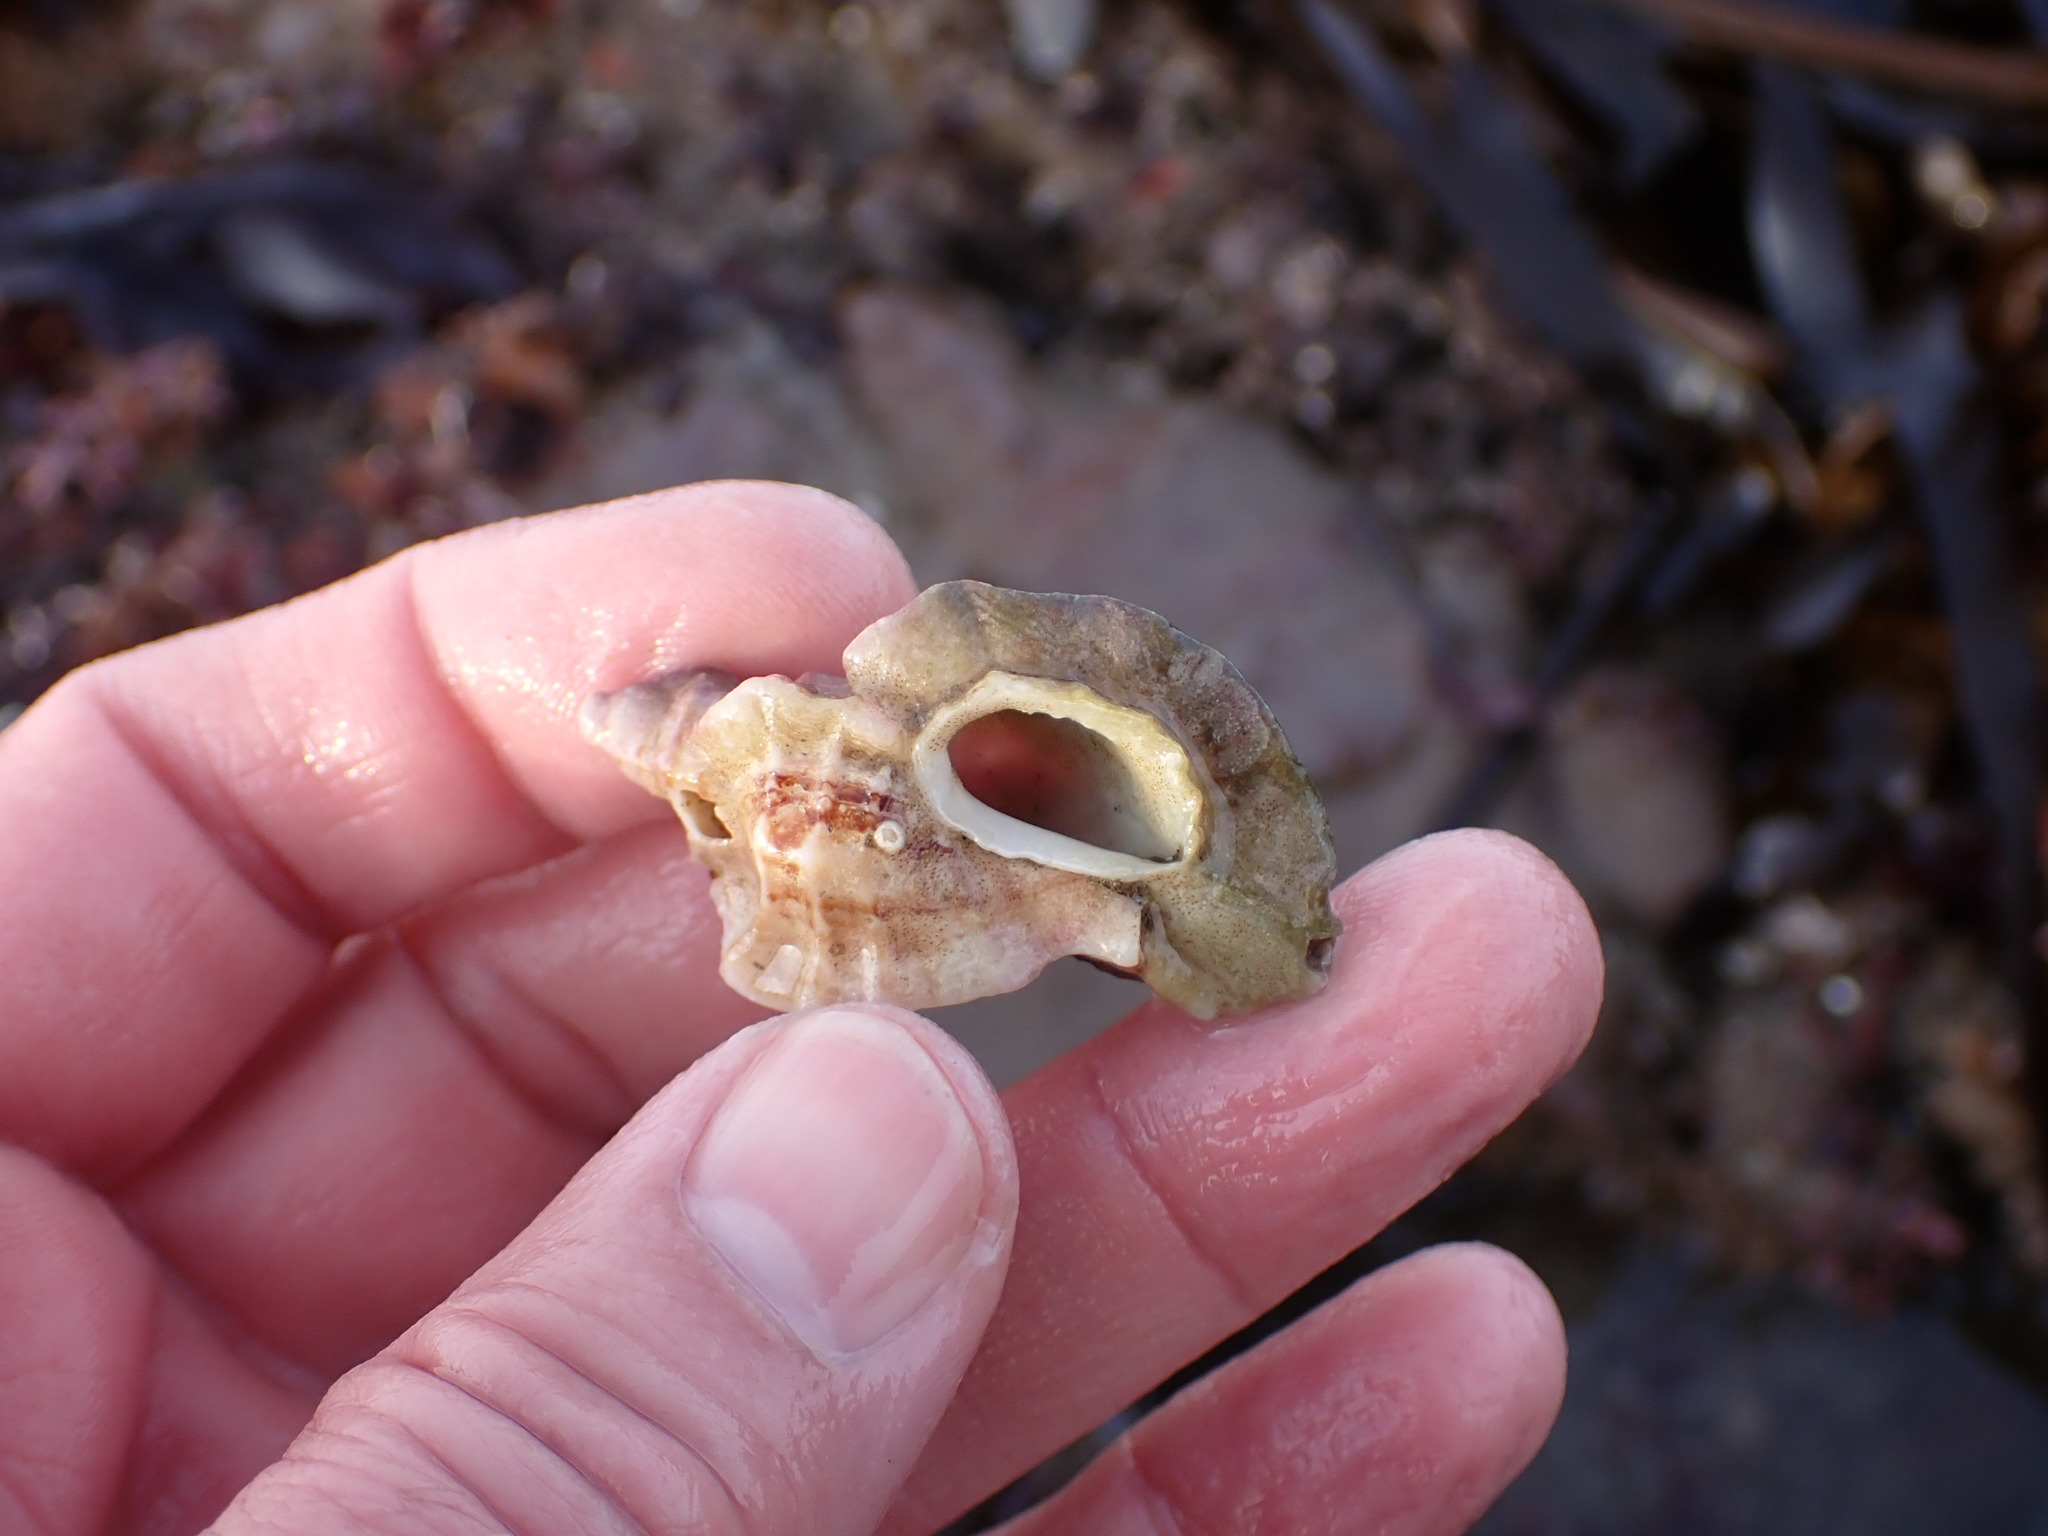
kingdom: Animalia
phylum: Mollusca
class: Gastropoda
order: Neogastropoda
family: Muricidae
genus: Ceratostoma
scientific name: Ceratostoma foliatum
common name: Foliate thorn purpura
